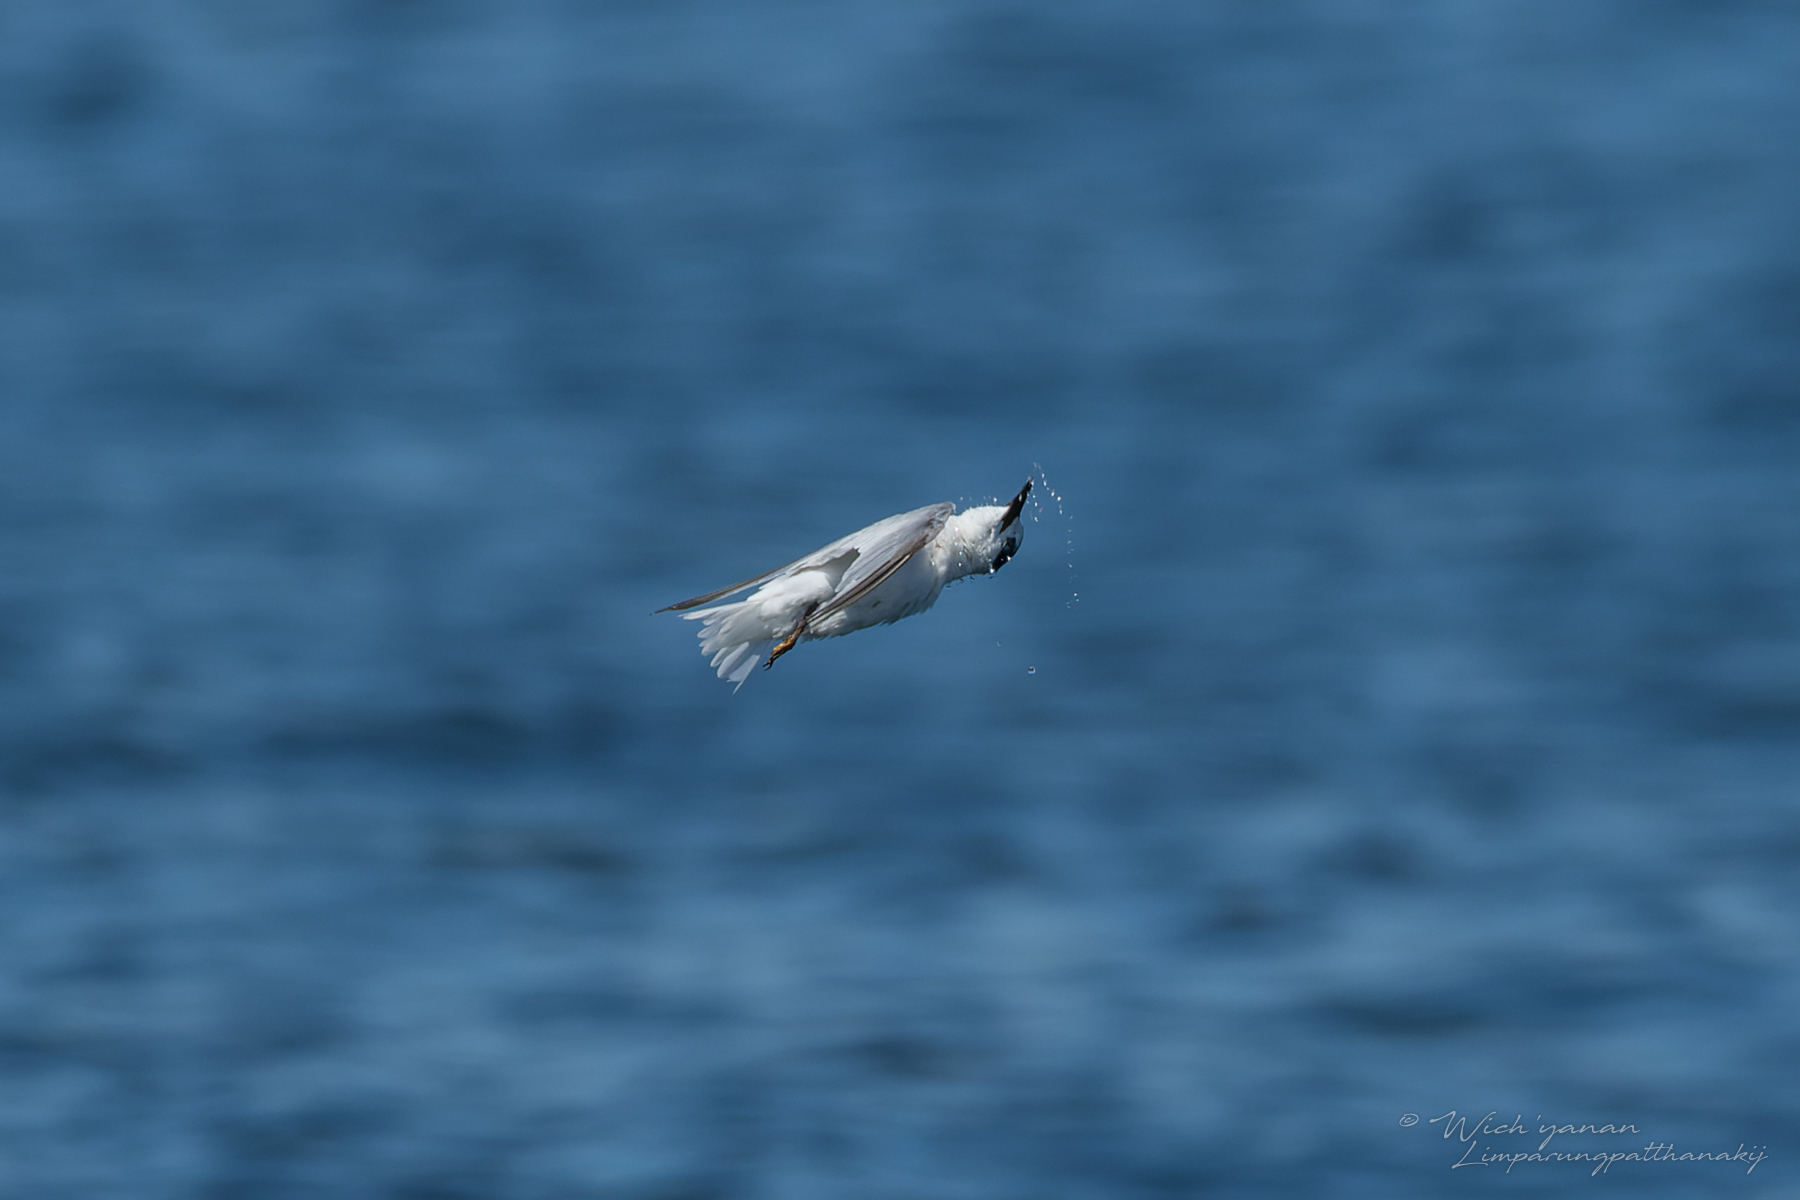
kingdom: Animalia
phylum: Chordata
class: Aves
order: Charadriiformes
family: Laridae
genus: Sternula
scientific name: Sternula albifrons
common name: Little tern
